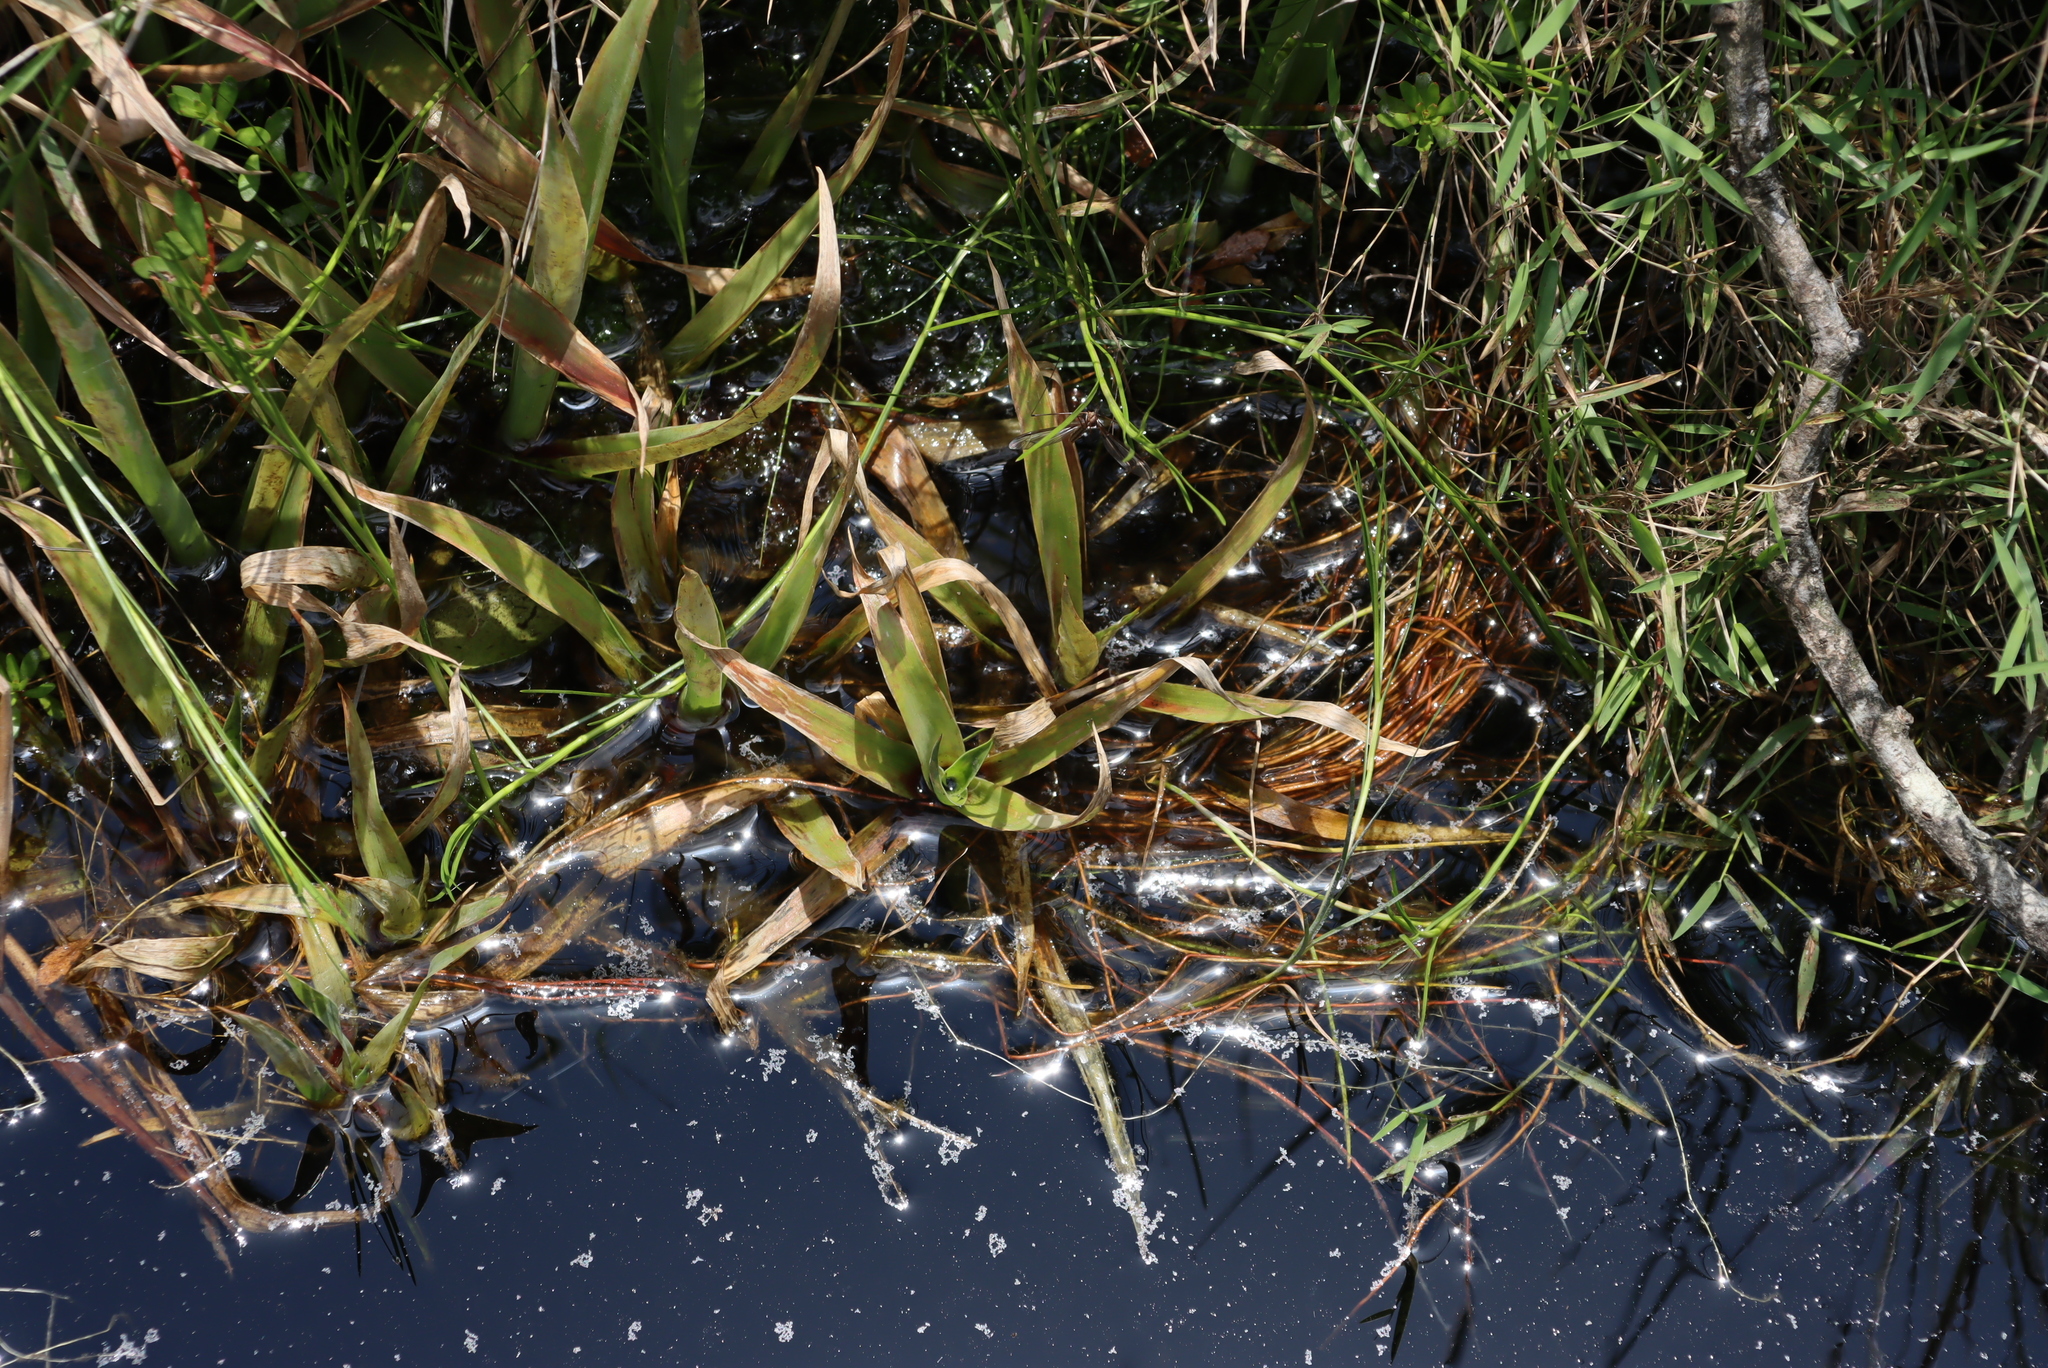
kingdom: Plantae
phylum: Tracheophyta
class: Liliopsida
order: Poales
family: Juncaceae
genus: Juncus
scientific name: Juncus lomatophyllus
